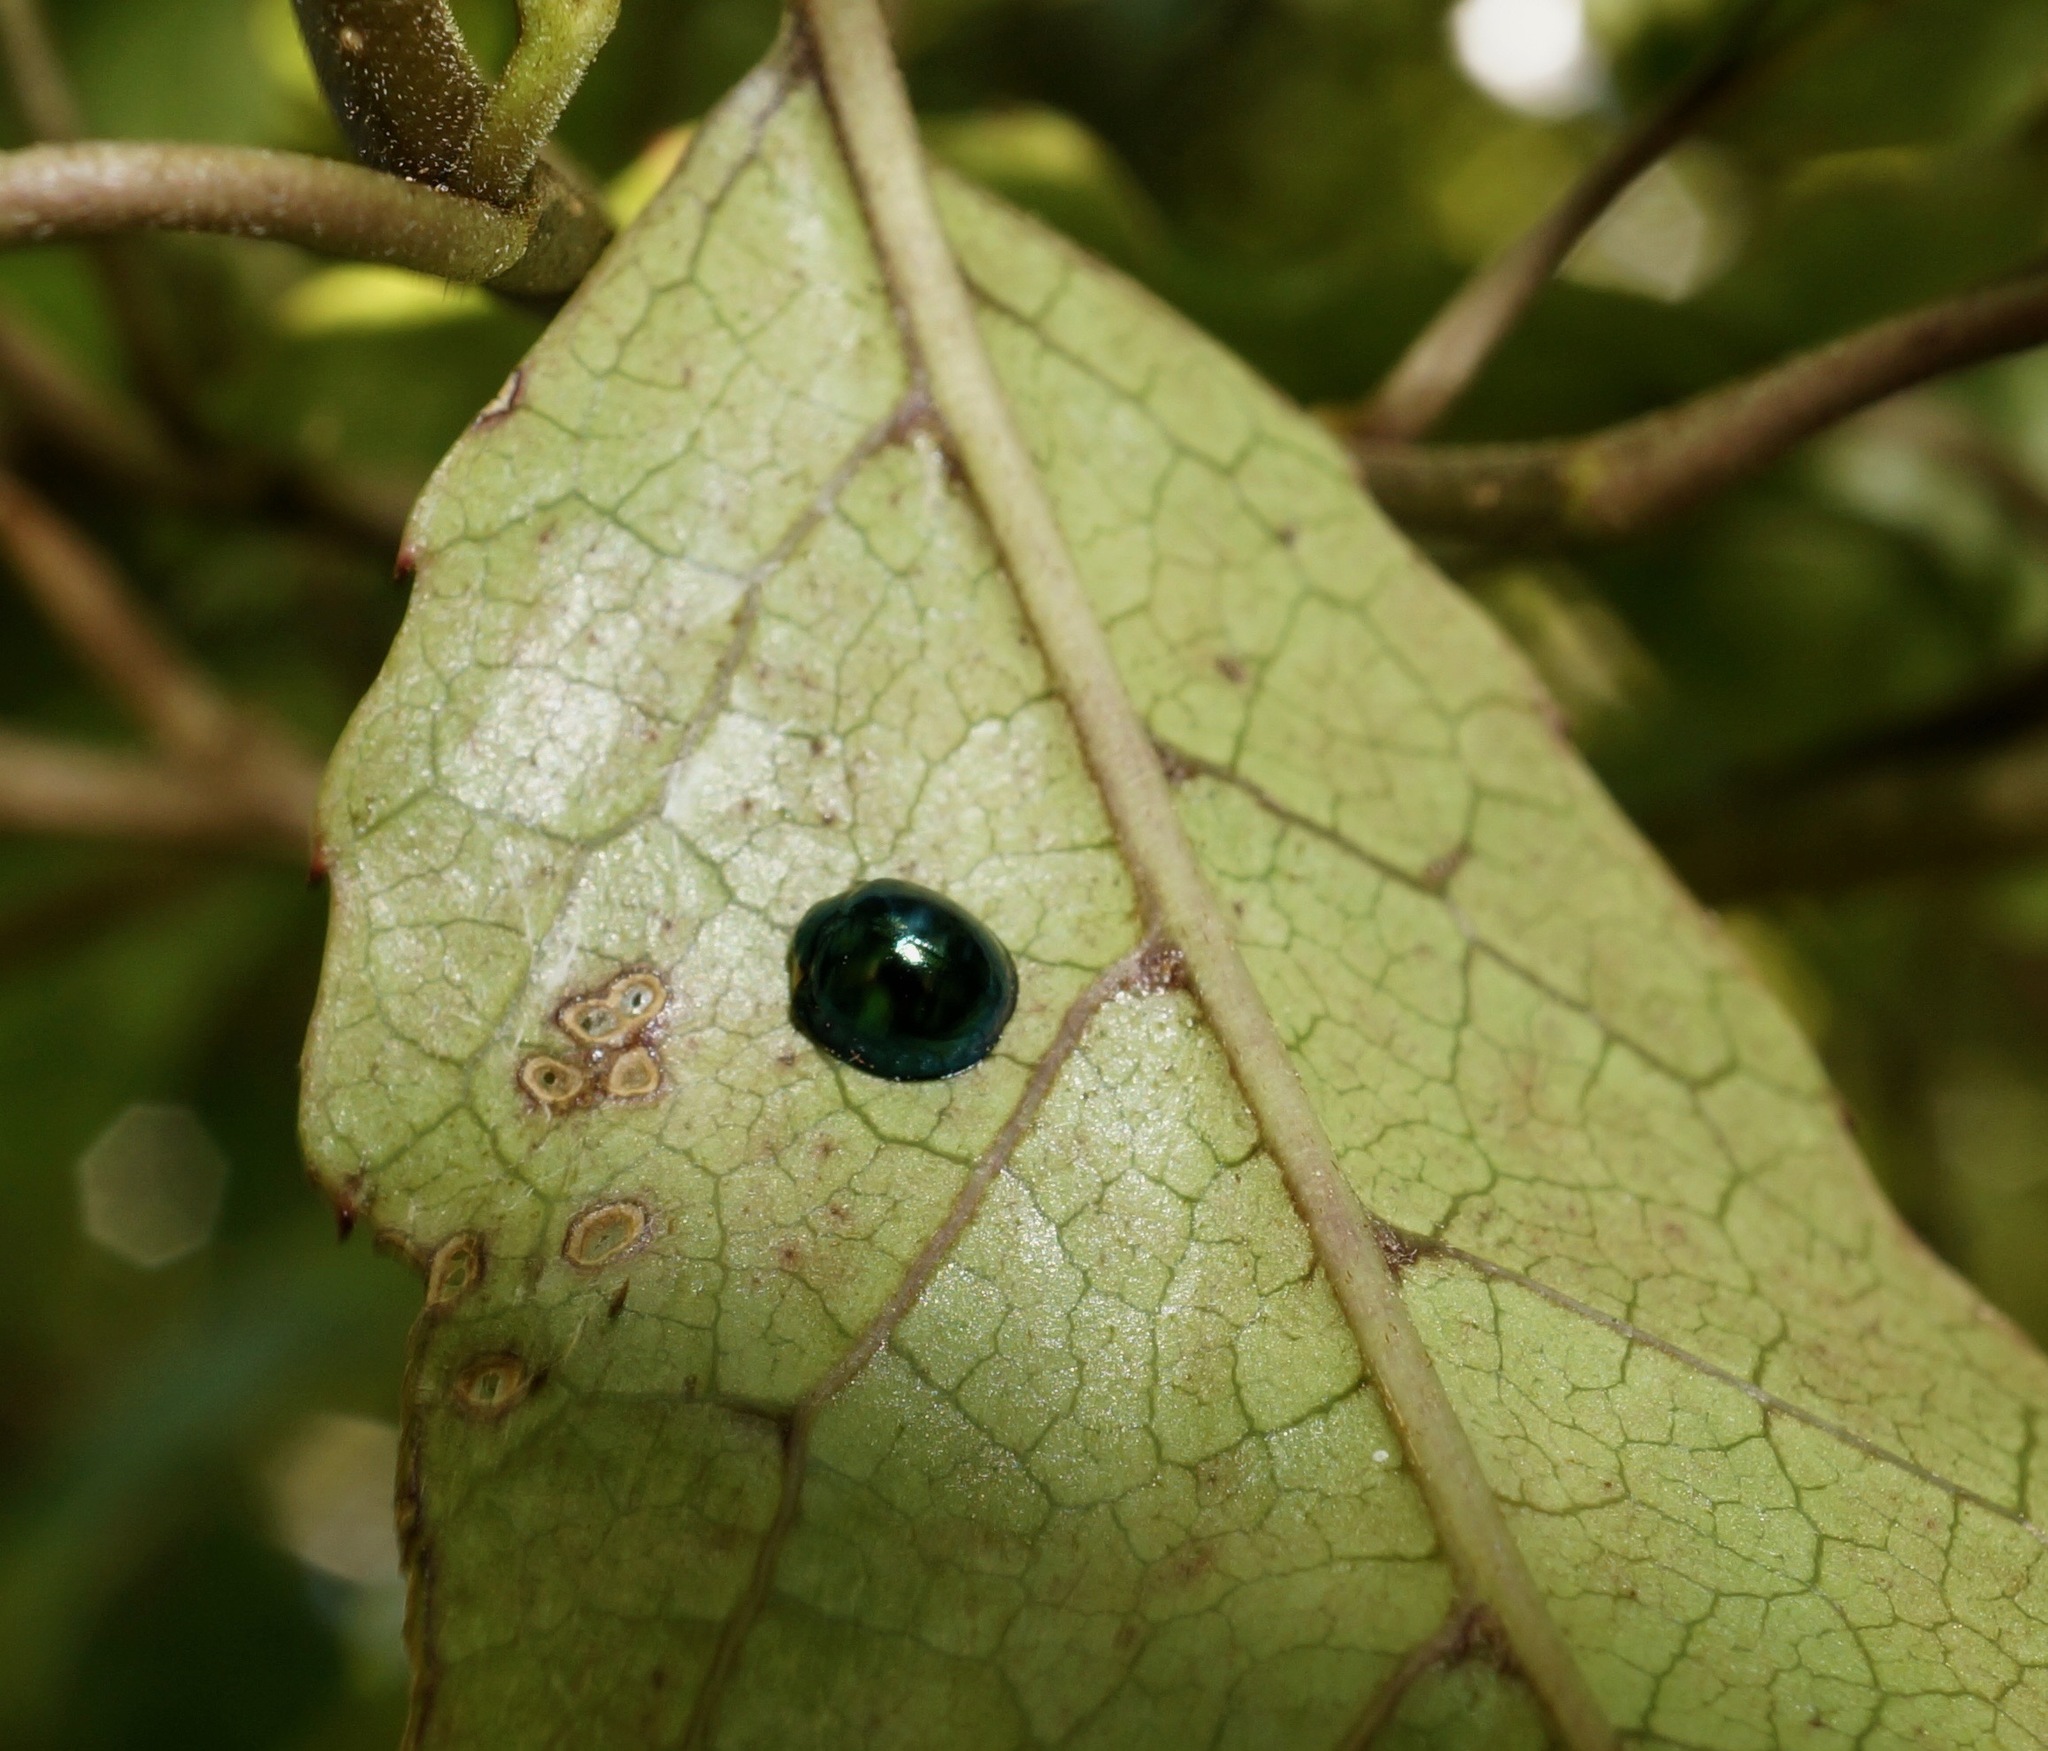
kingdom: Animalia
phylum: Arthropoda
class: Insecta
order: Coleoptera
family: Coccinellidae
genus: Halmus
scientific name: Halmus chalybeus
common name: Steel blue ladybird beetle
